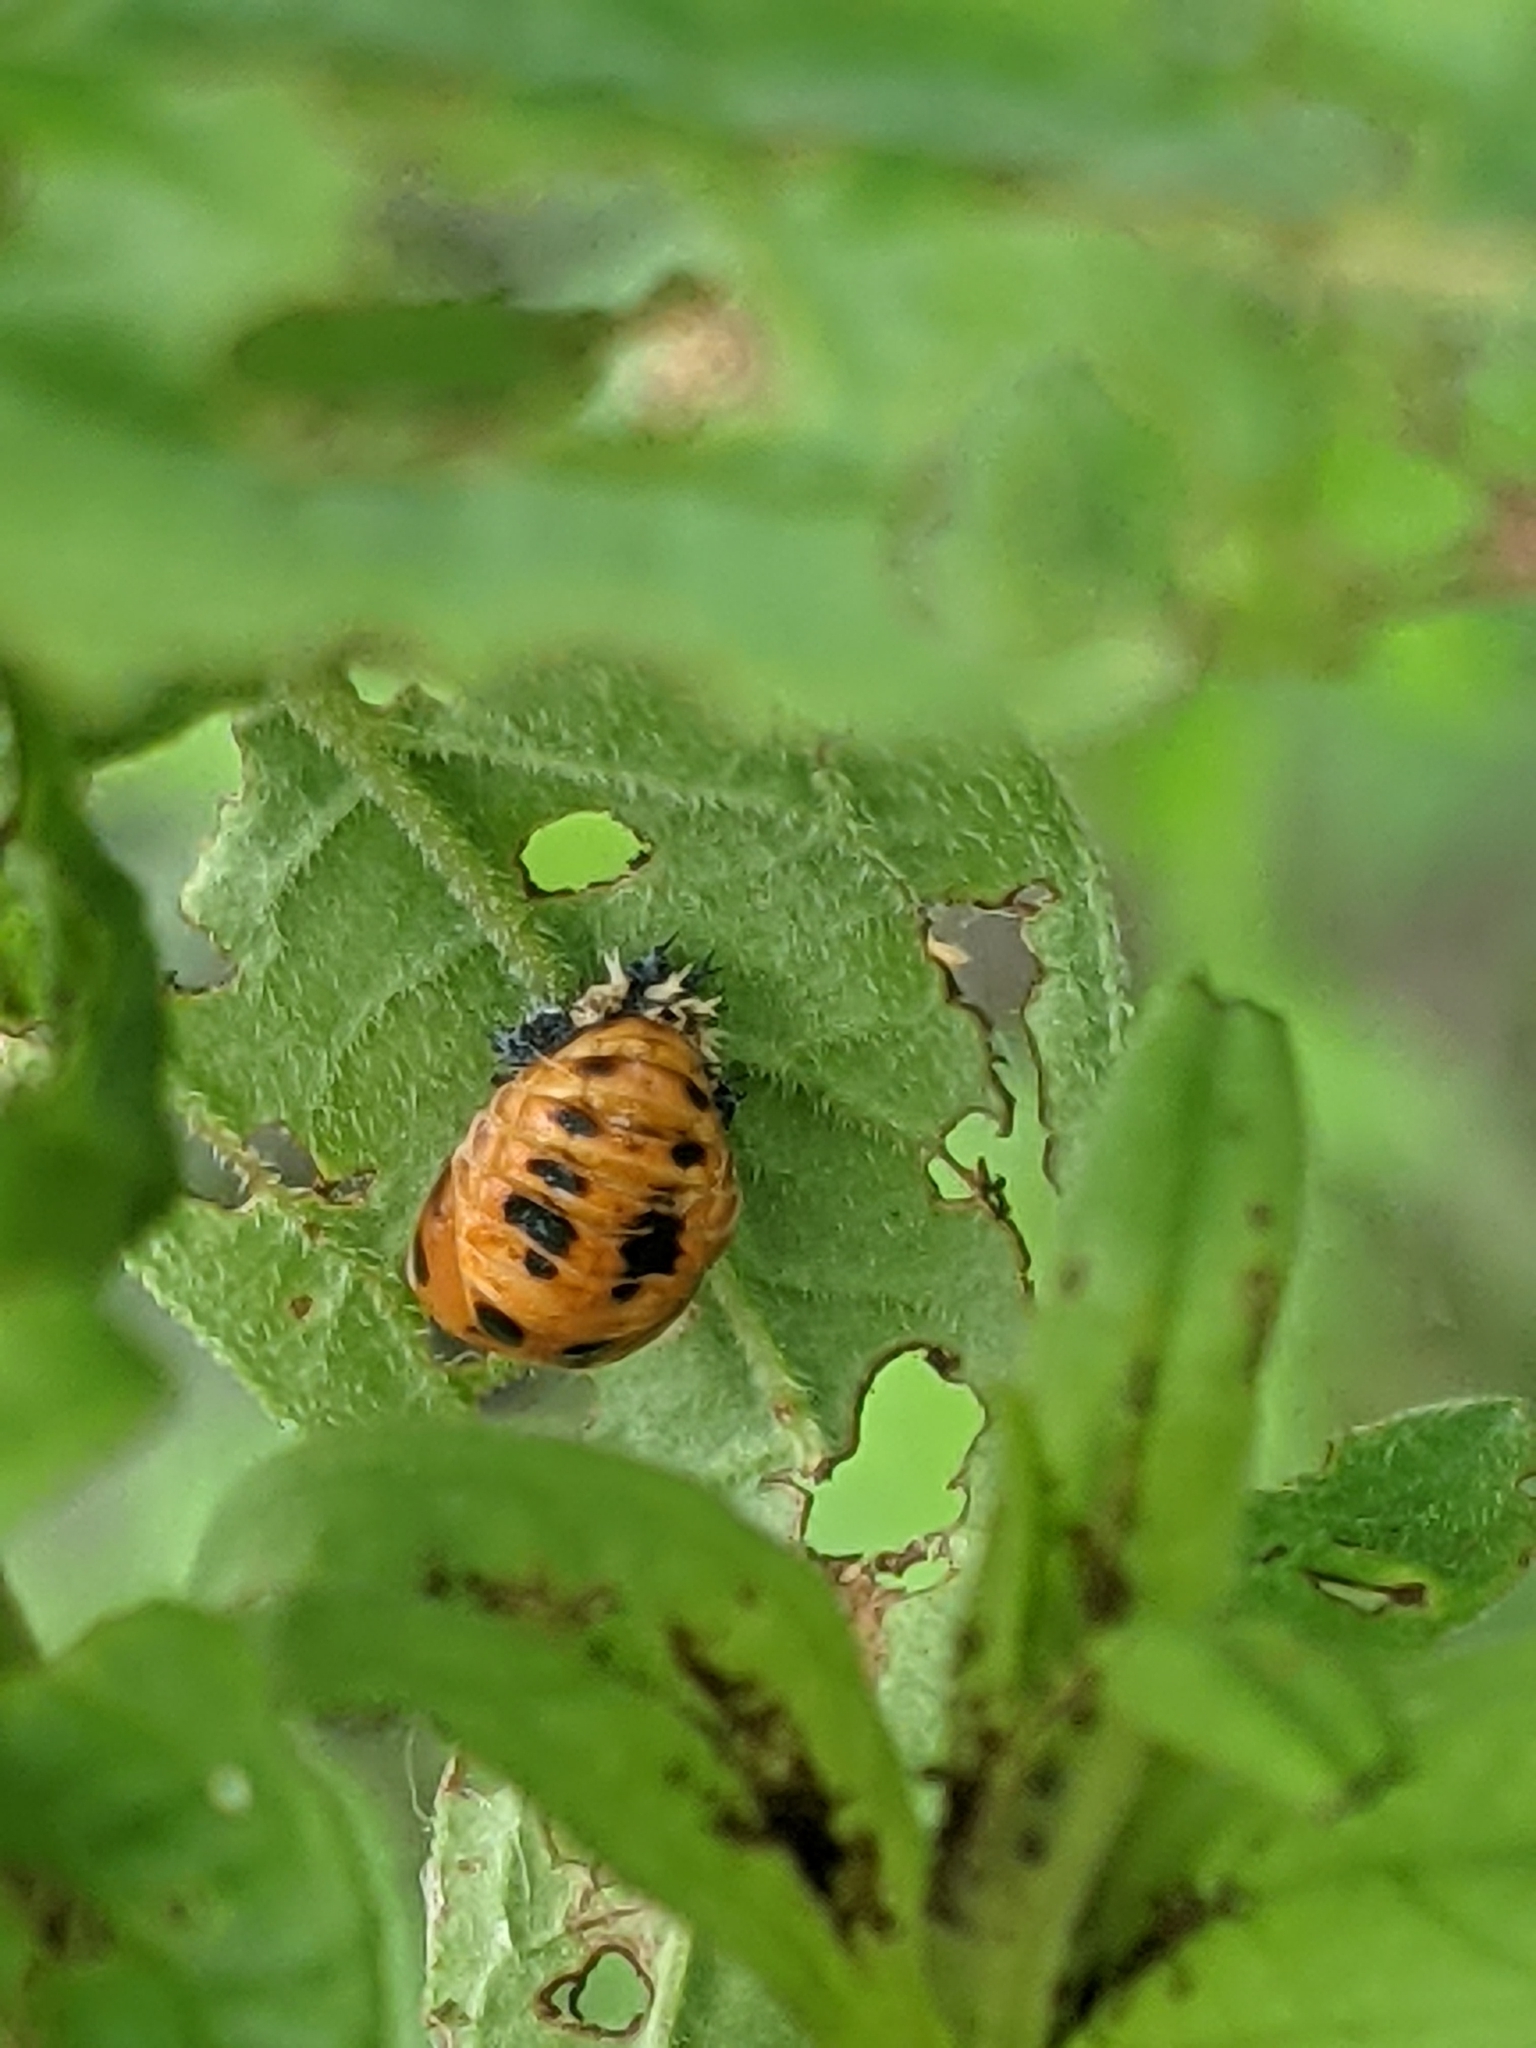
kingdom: Animalia
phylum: Arthropoda
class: Insecta
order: Coleoptera
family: Coccinellidae
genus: Harmonia
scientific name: Harmonia axyridis
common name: Harlequin ladybird
